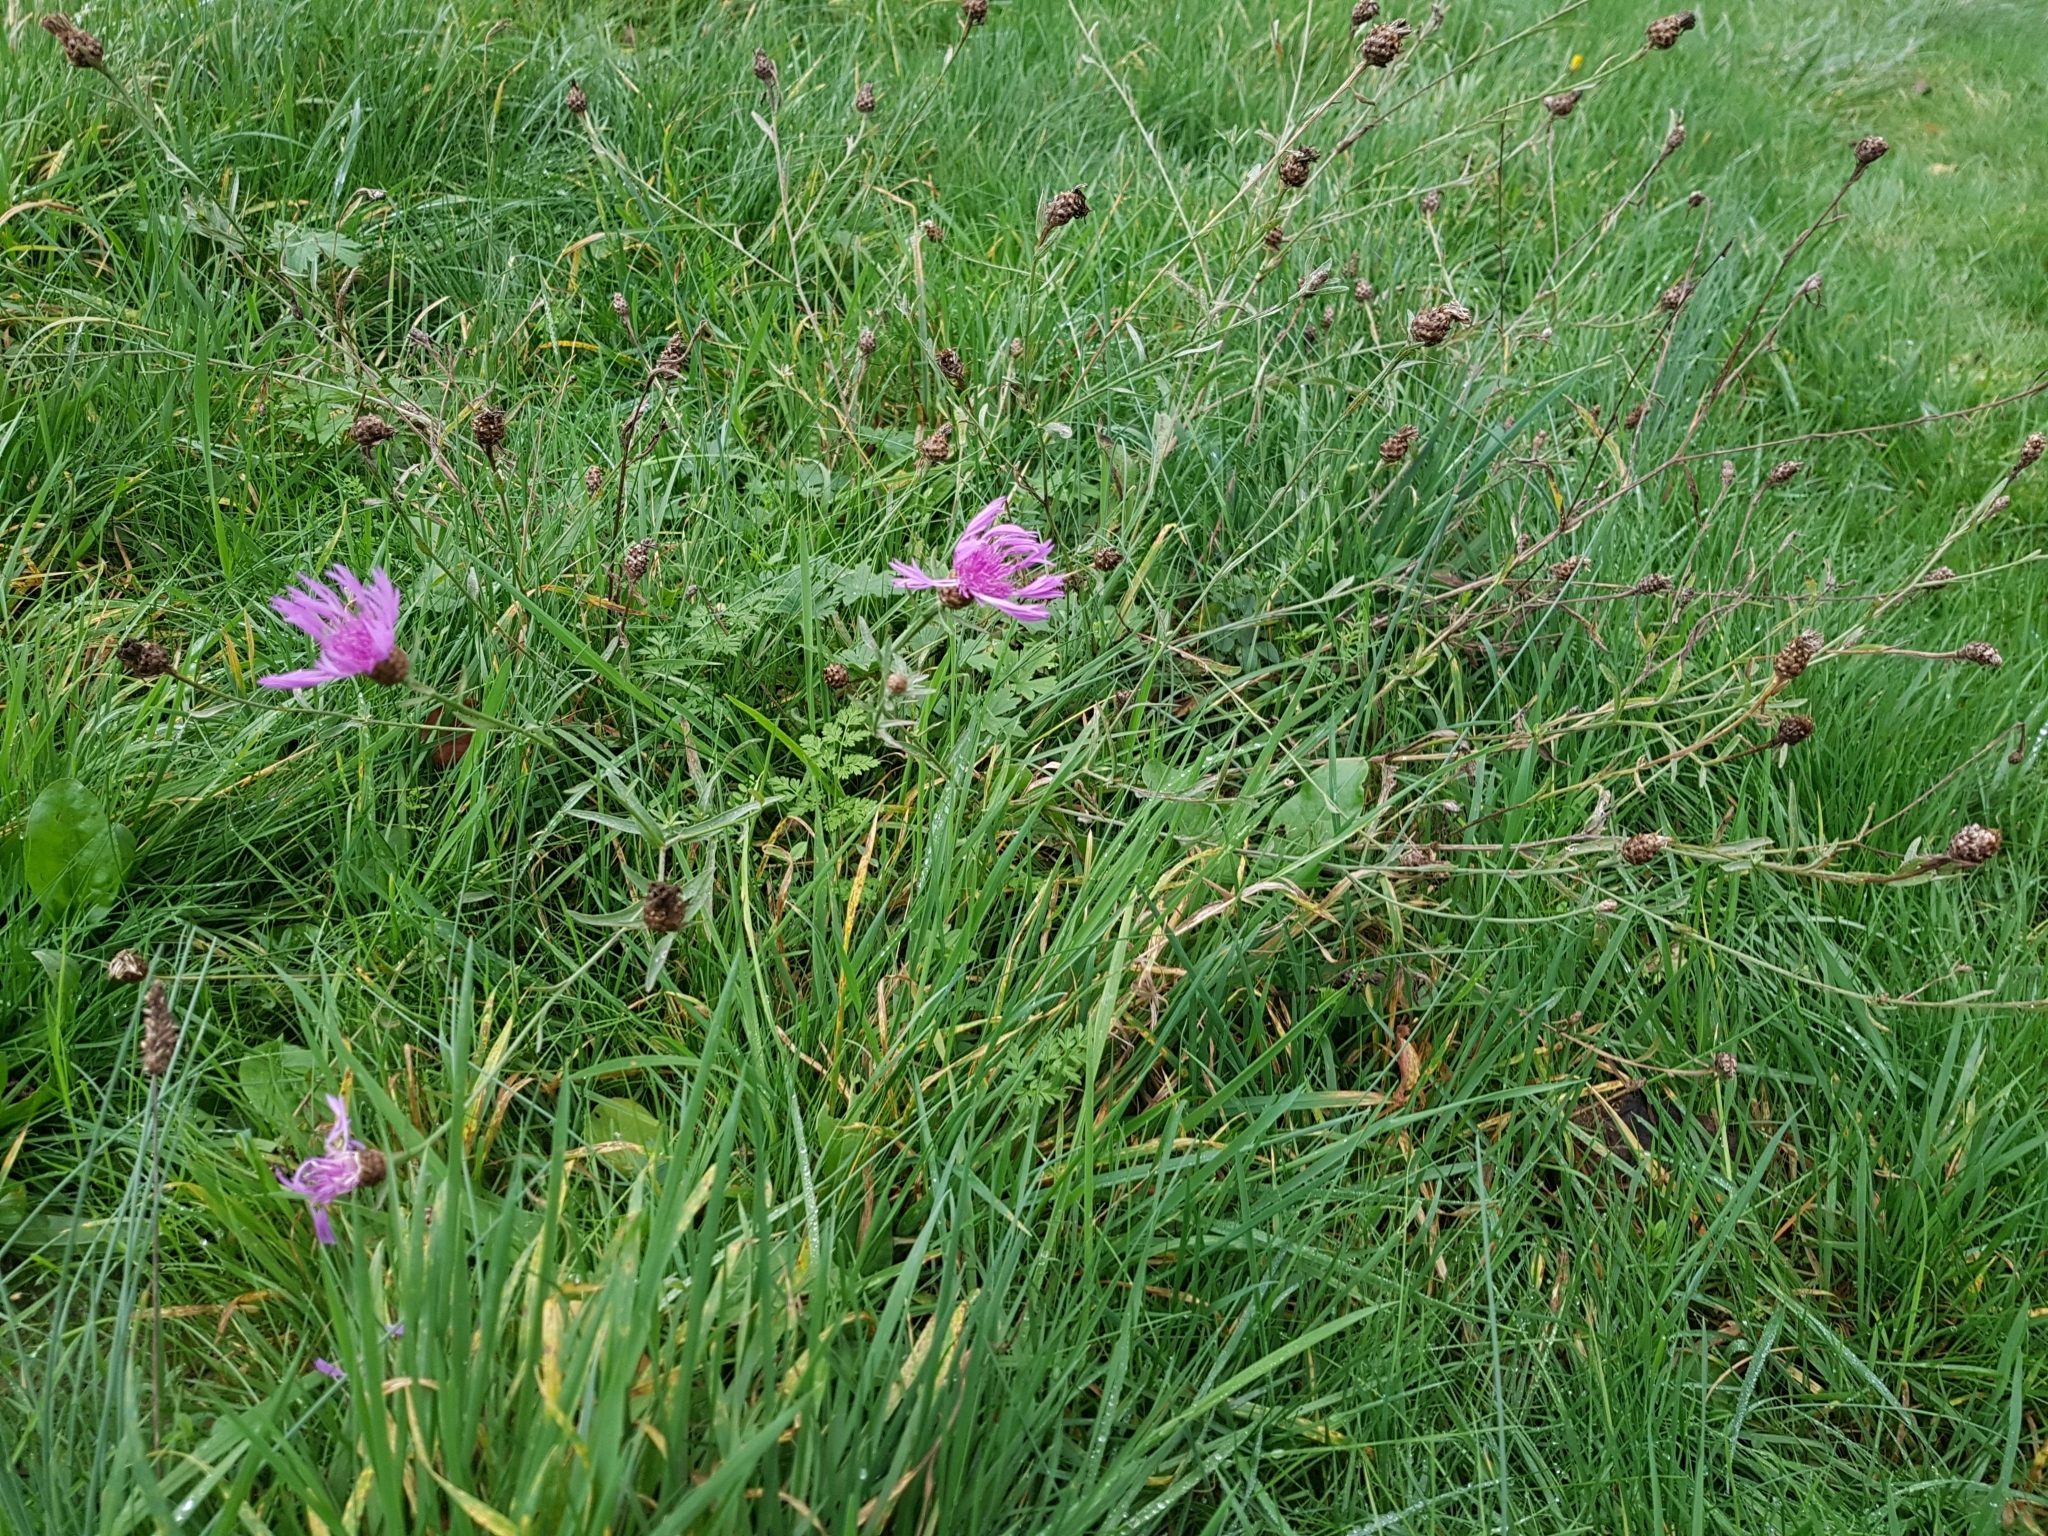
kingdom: Plantae
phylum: Tracheophyta
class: Magnoliopsida
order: Asterales
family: Asteraceae
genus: Centaurea
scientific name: Centaurea jacea
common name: Brown knapweed
